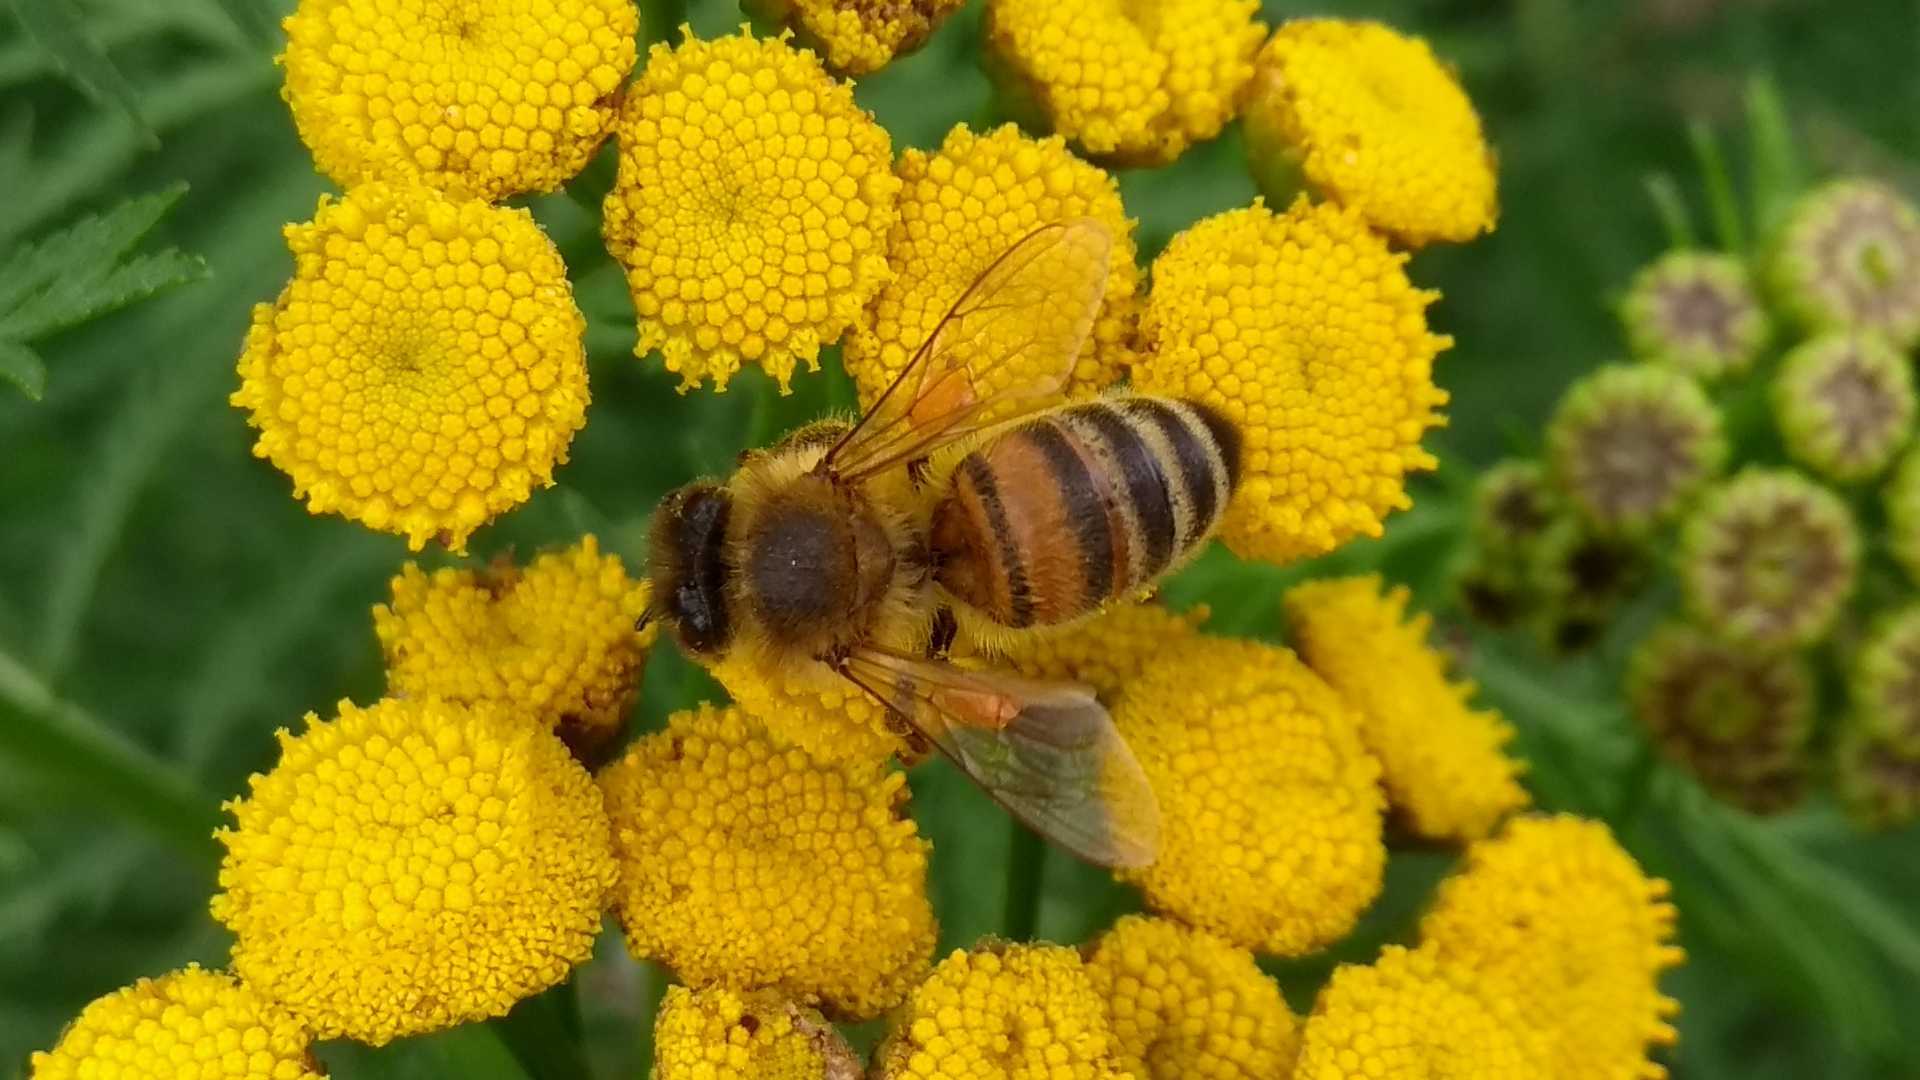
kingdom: Animalia
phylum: Arthropoda
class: Insecta
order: Hymenoptera
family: Apidae
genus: Apis
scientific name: Apis mellifera
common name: Honey bee
